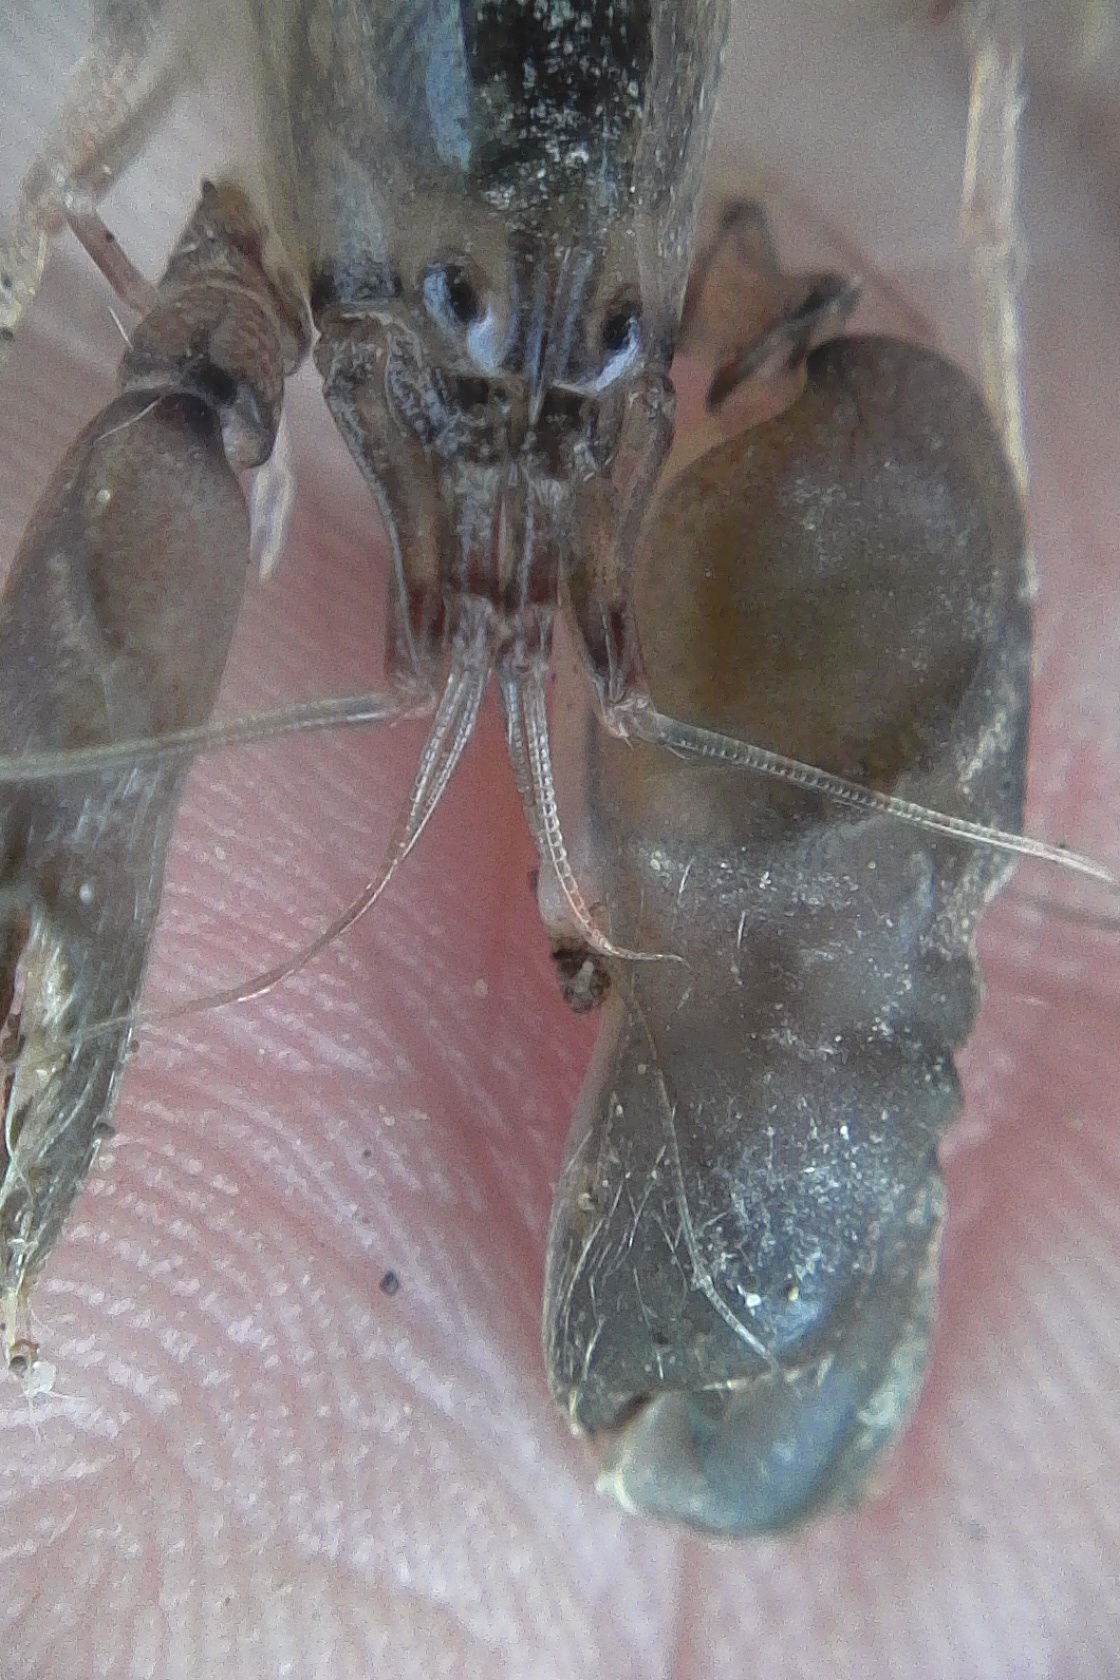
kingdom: Animalia
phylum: Arthropoda
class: Malacostraca
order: Decapoda
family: Alpheidae
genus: Alpheus
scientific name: Alpheus richardsoni
